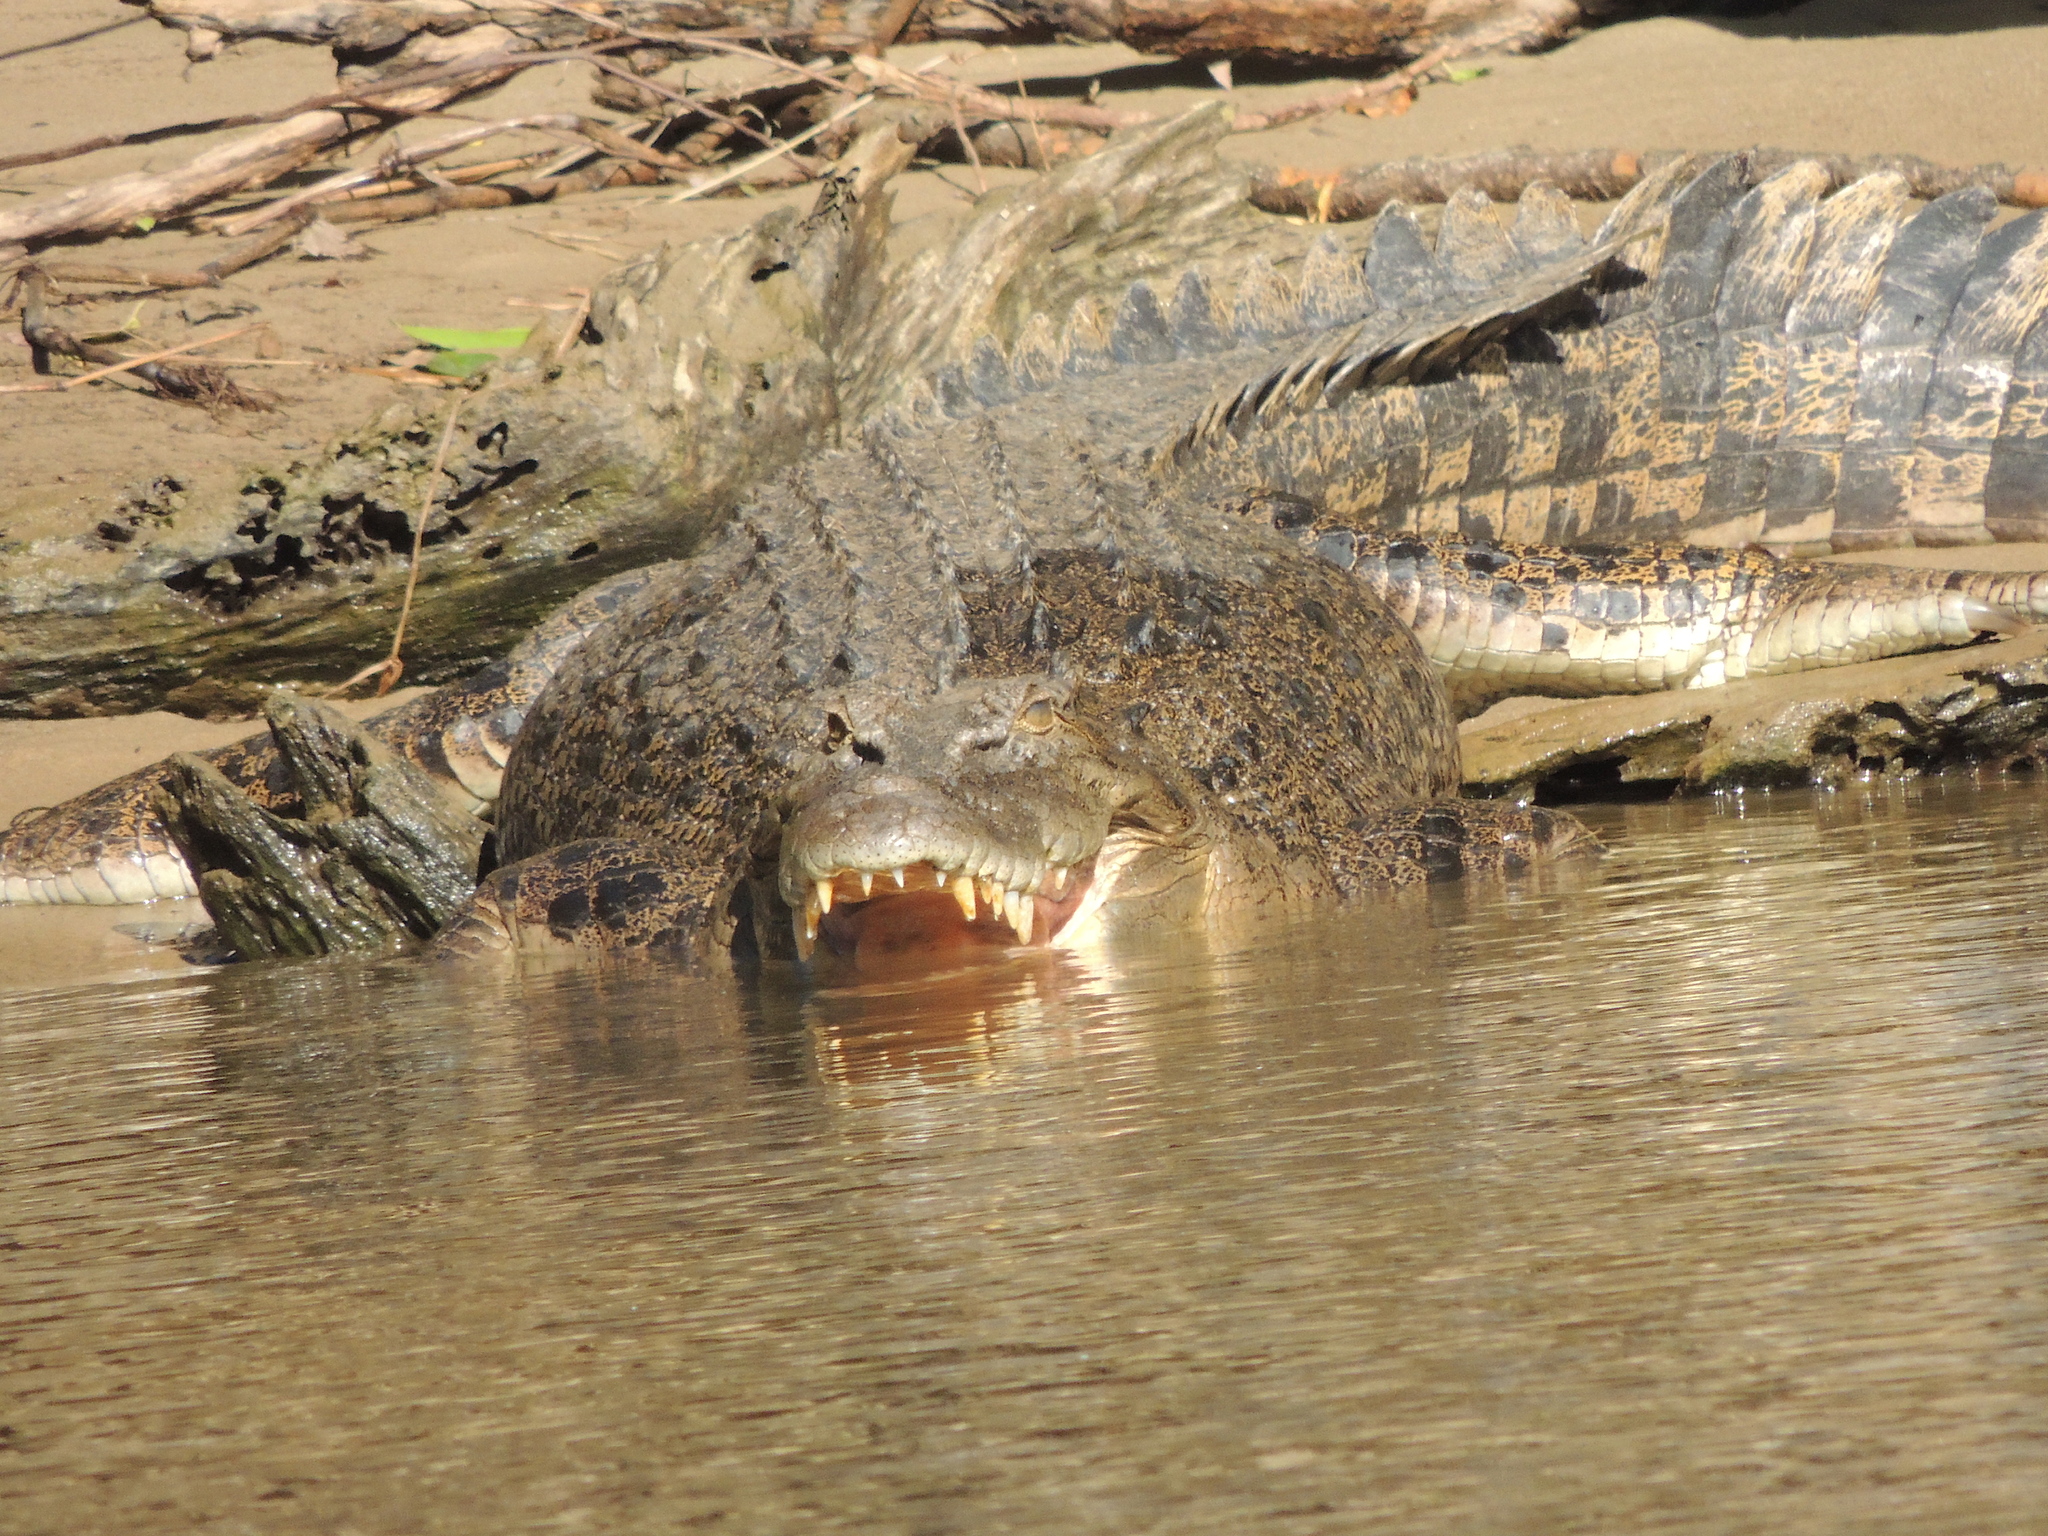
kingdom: Animalia
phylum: Chordata
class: Crocodylia
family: Crocodylidae
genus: Crocodylus
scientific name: Crocodylus porosus
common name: Saltwater crocodile
